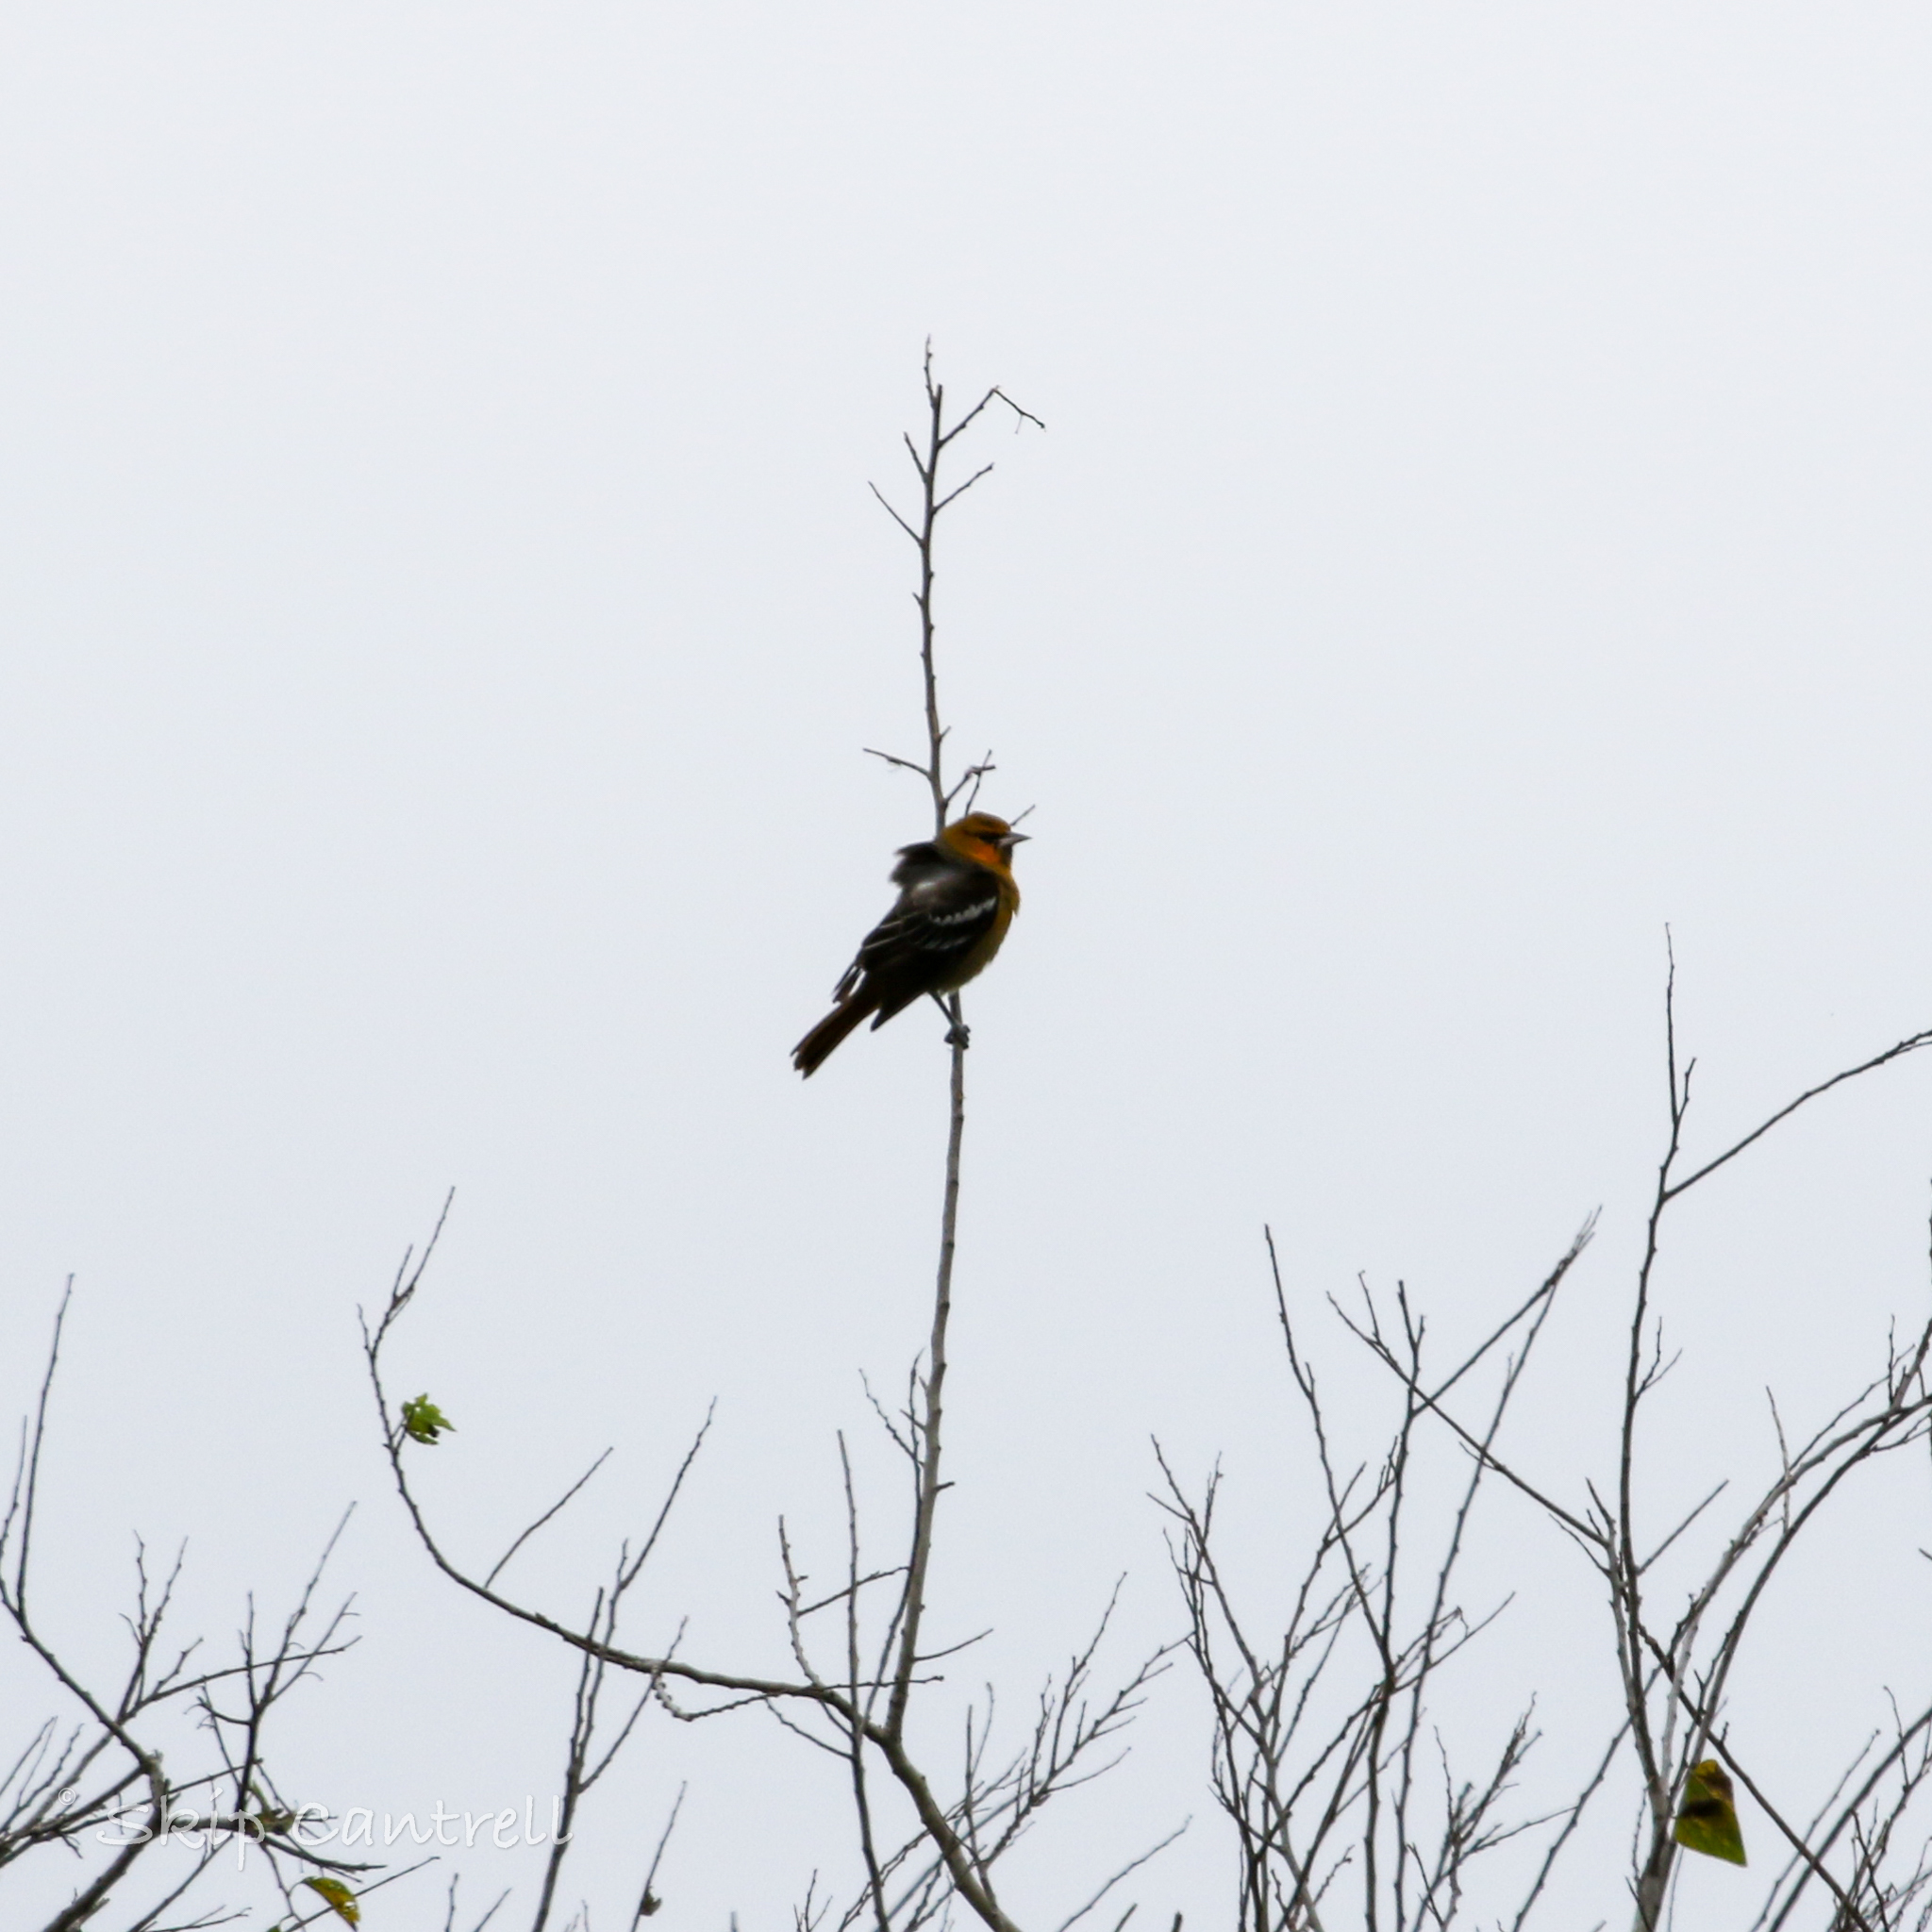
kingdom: Animalia
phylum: Chordata
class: Aves
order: Passeriformes
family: Icteridae
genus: Icterus
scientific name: Icterus bullockii
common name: Bullock's oriole
